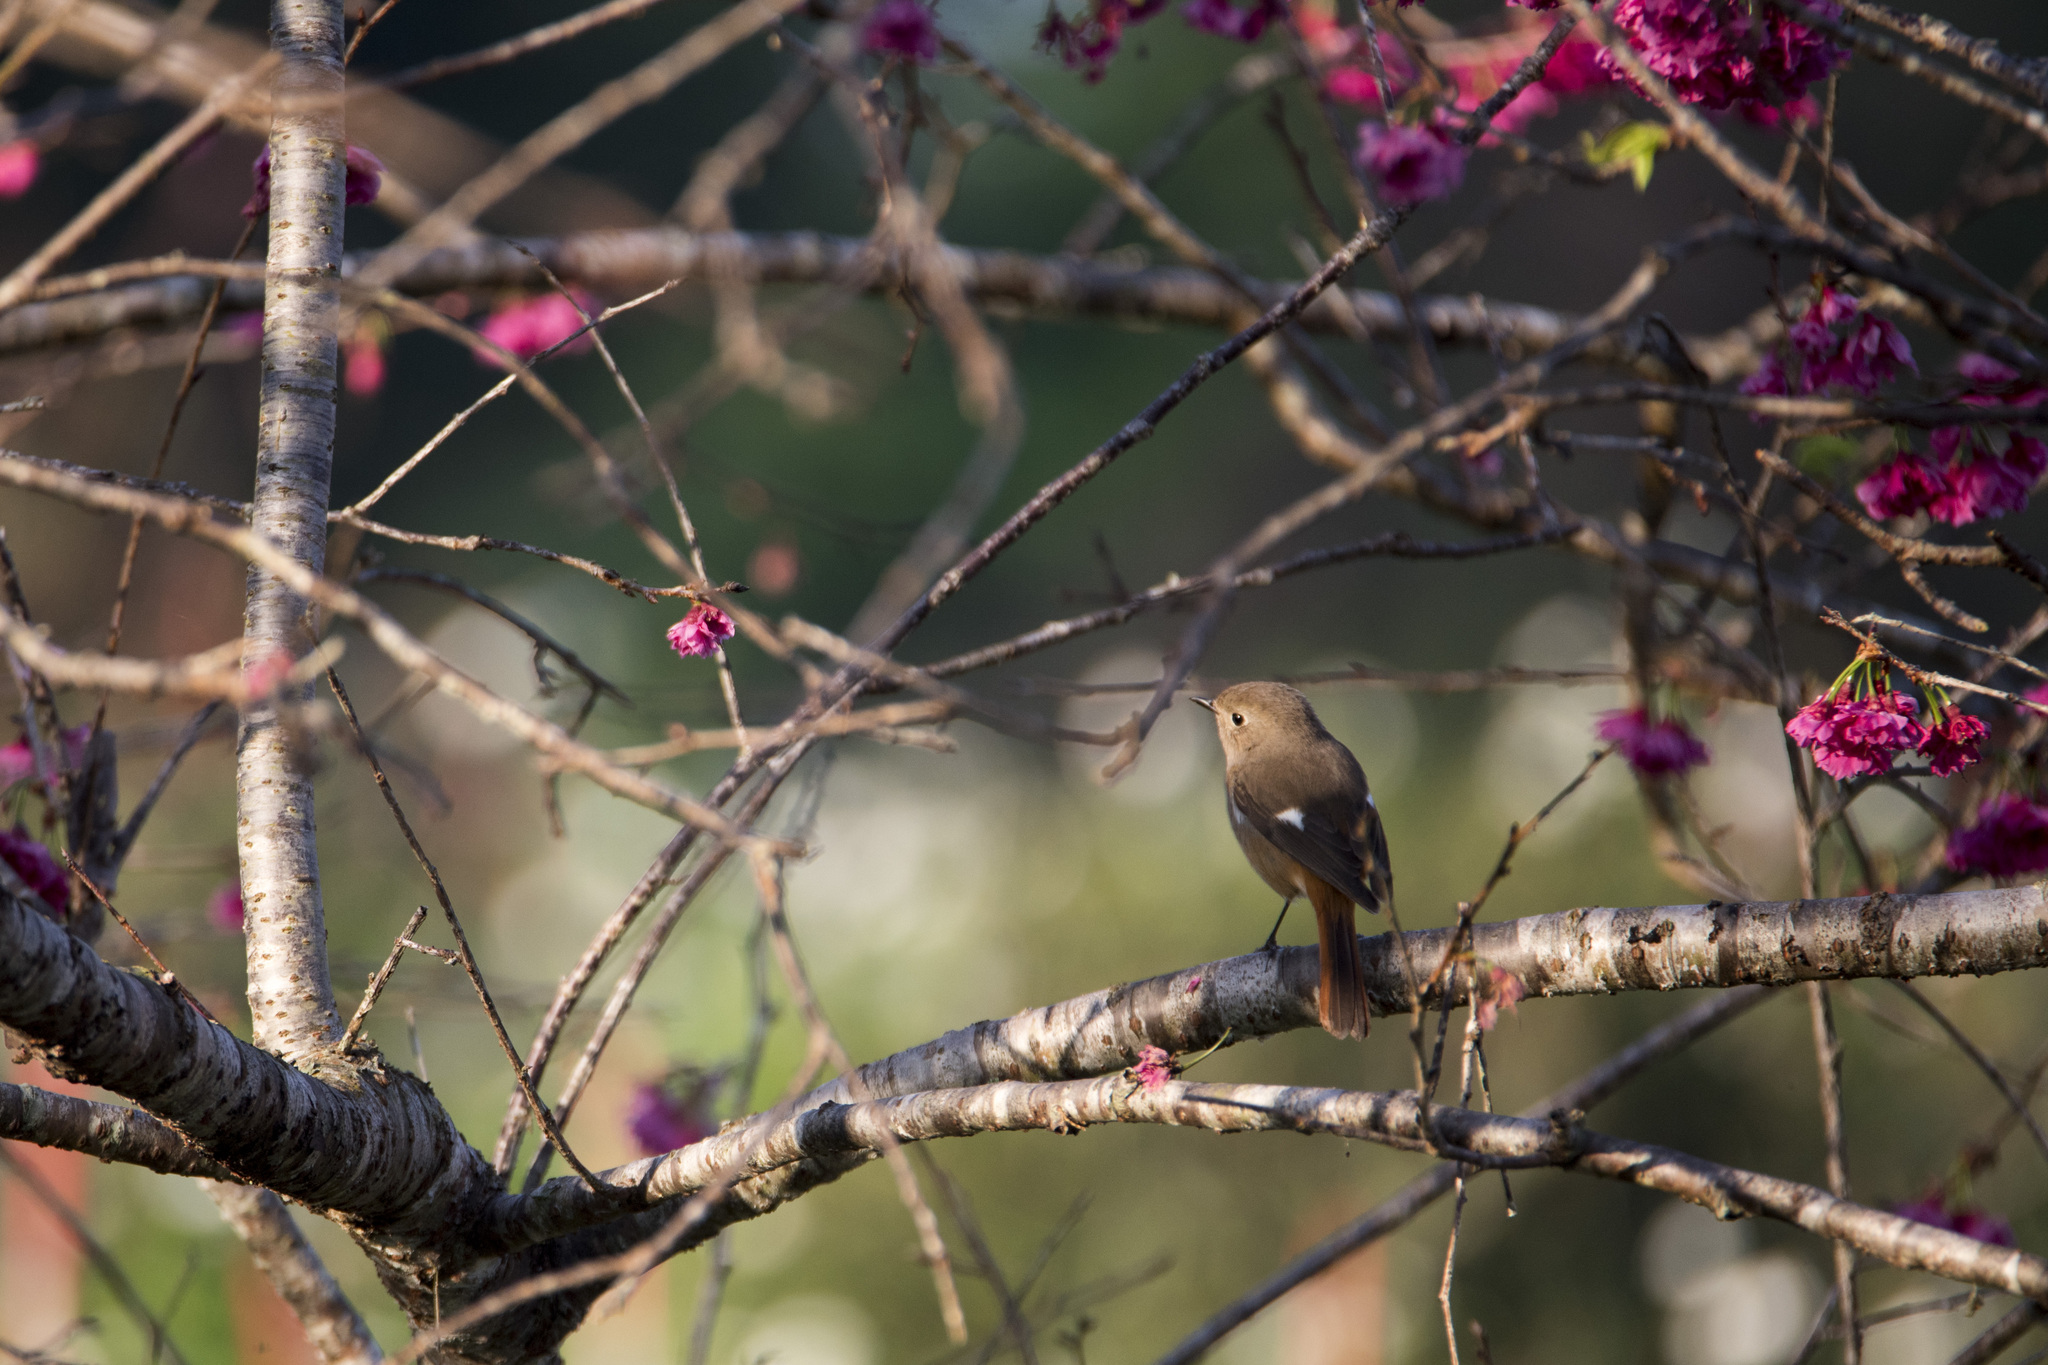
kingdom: Animalia
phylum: Chordata
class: Aves
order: Passeriformes
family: Muscicapidae
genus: Phoenicurus
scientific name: Phoenicurus auroreus
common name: Daurian redstart
